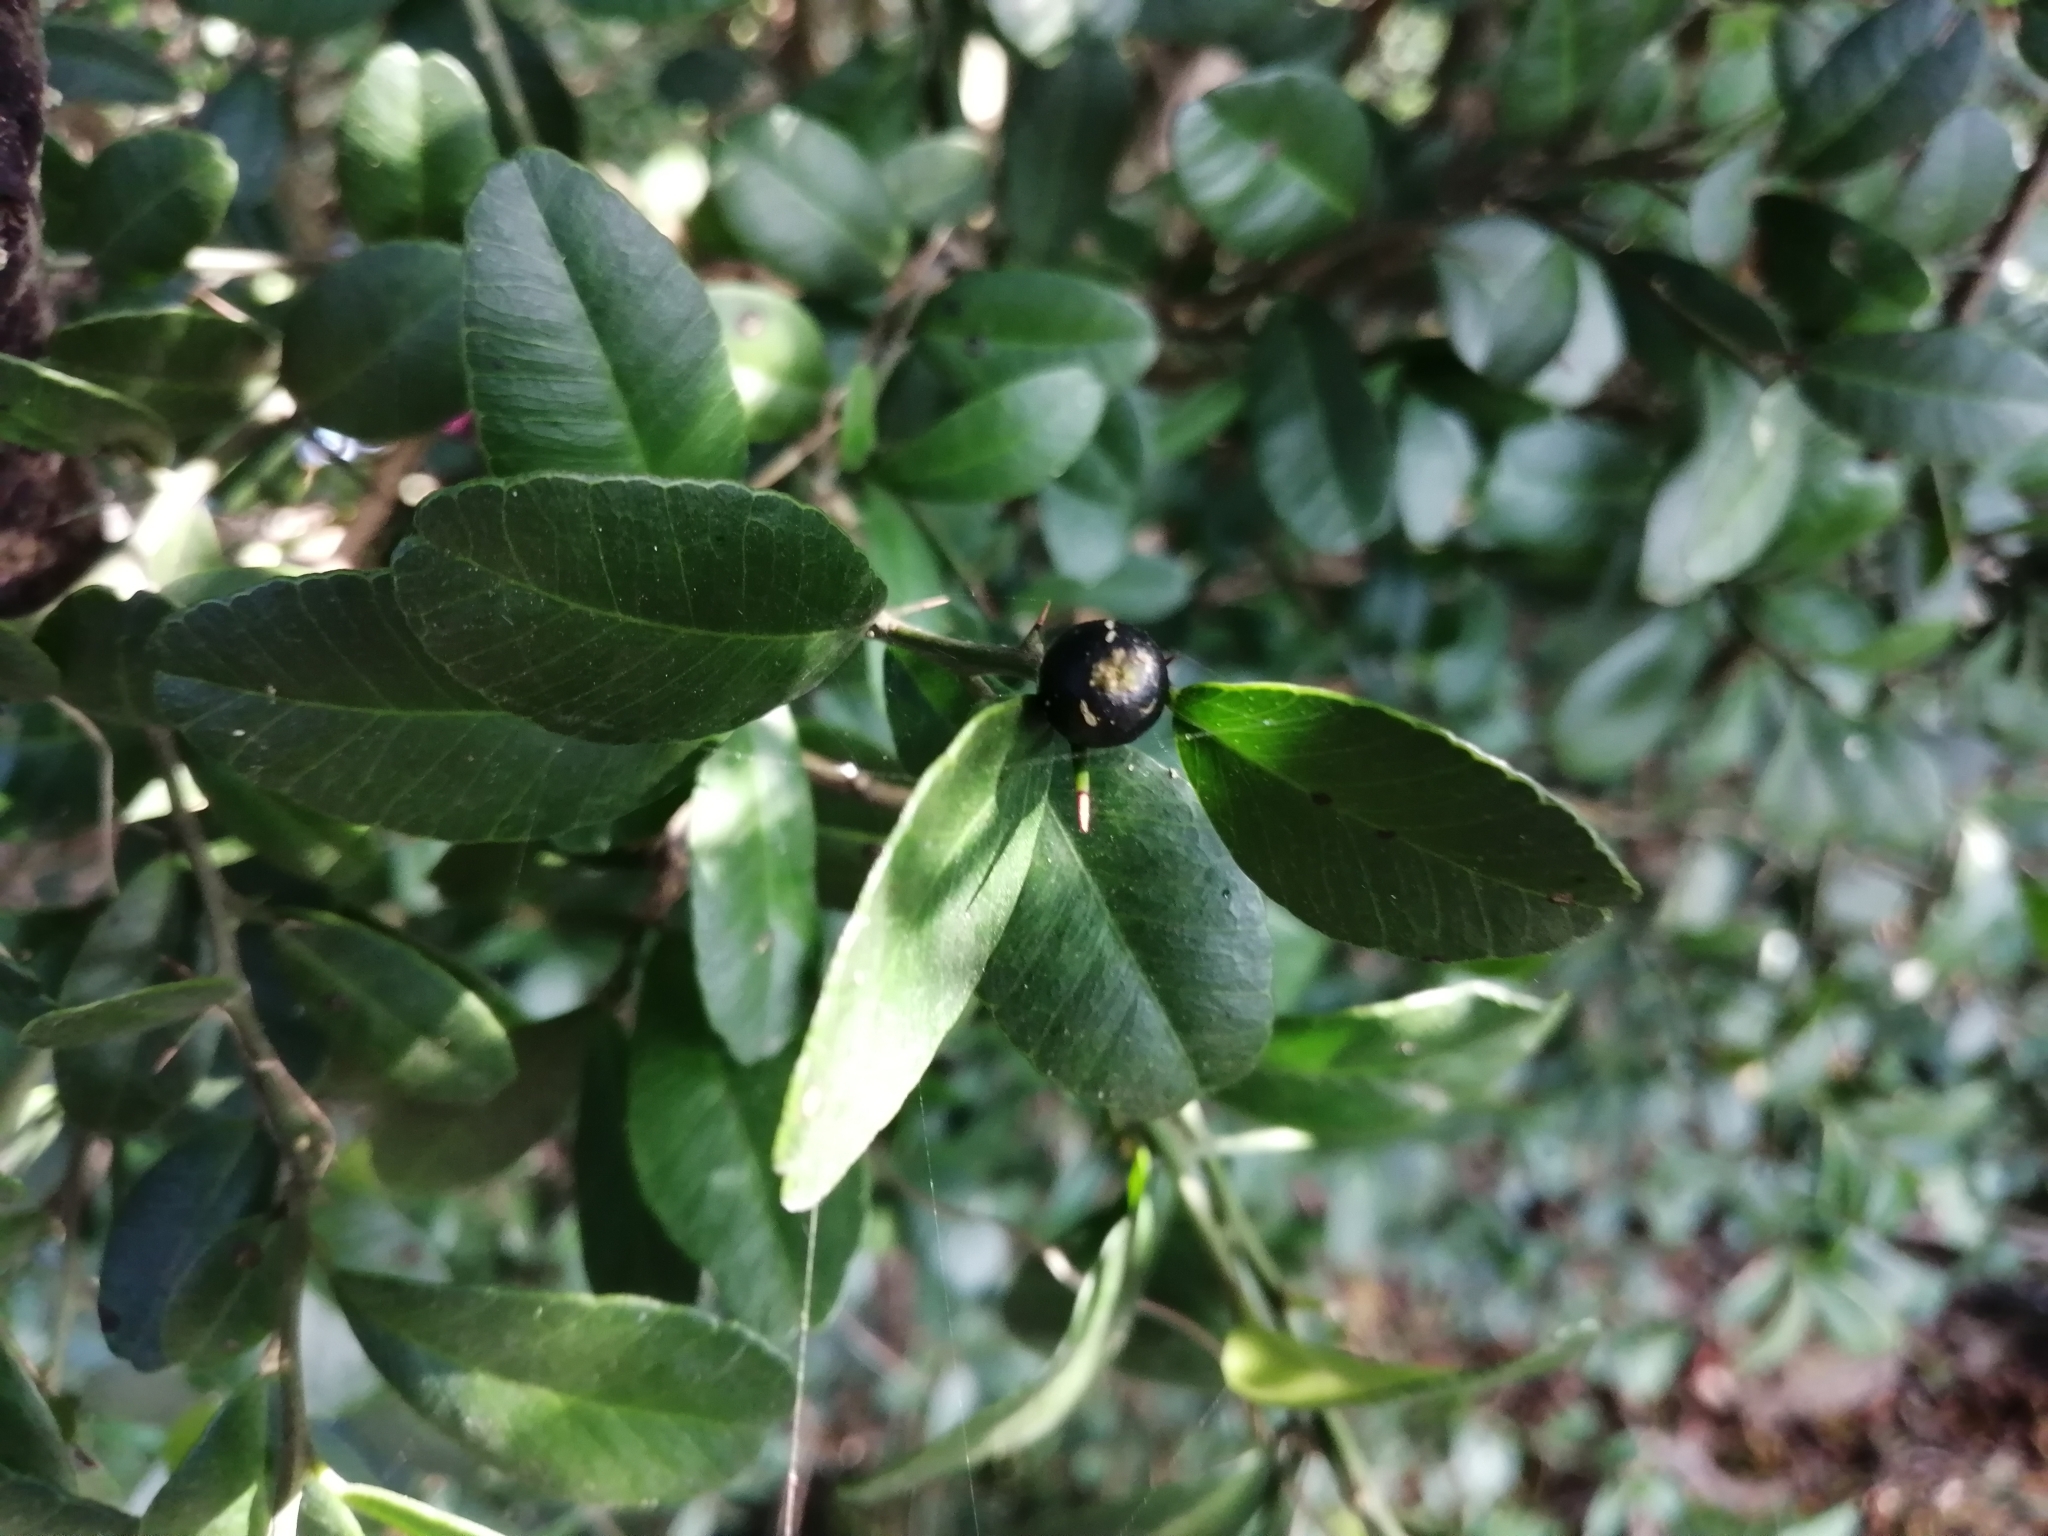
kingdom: Plantae
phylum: Tracheophyta
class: Magnoliopsida
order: Sapindales
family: Rutaceae
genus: Atalantia
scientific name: Atalantia buxifolia
